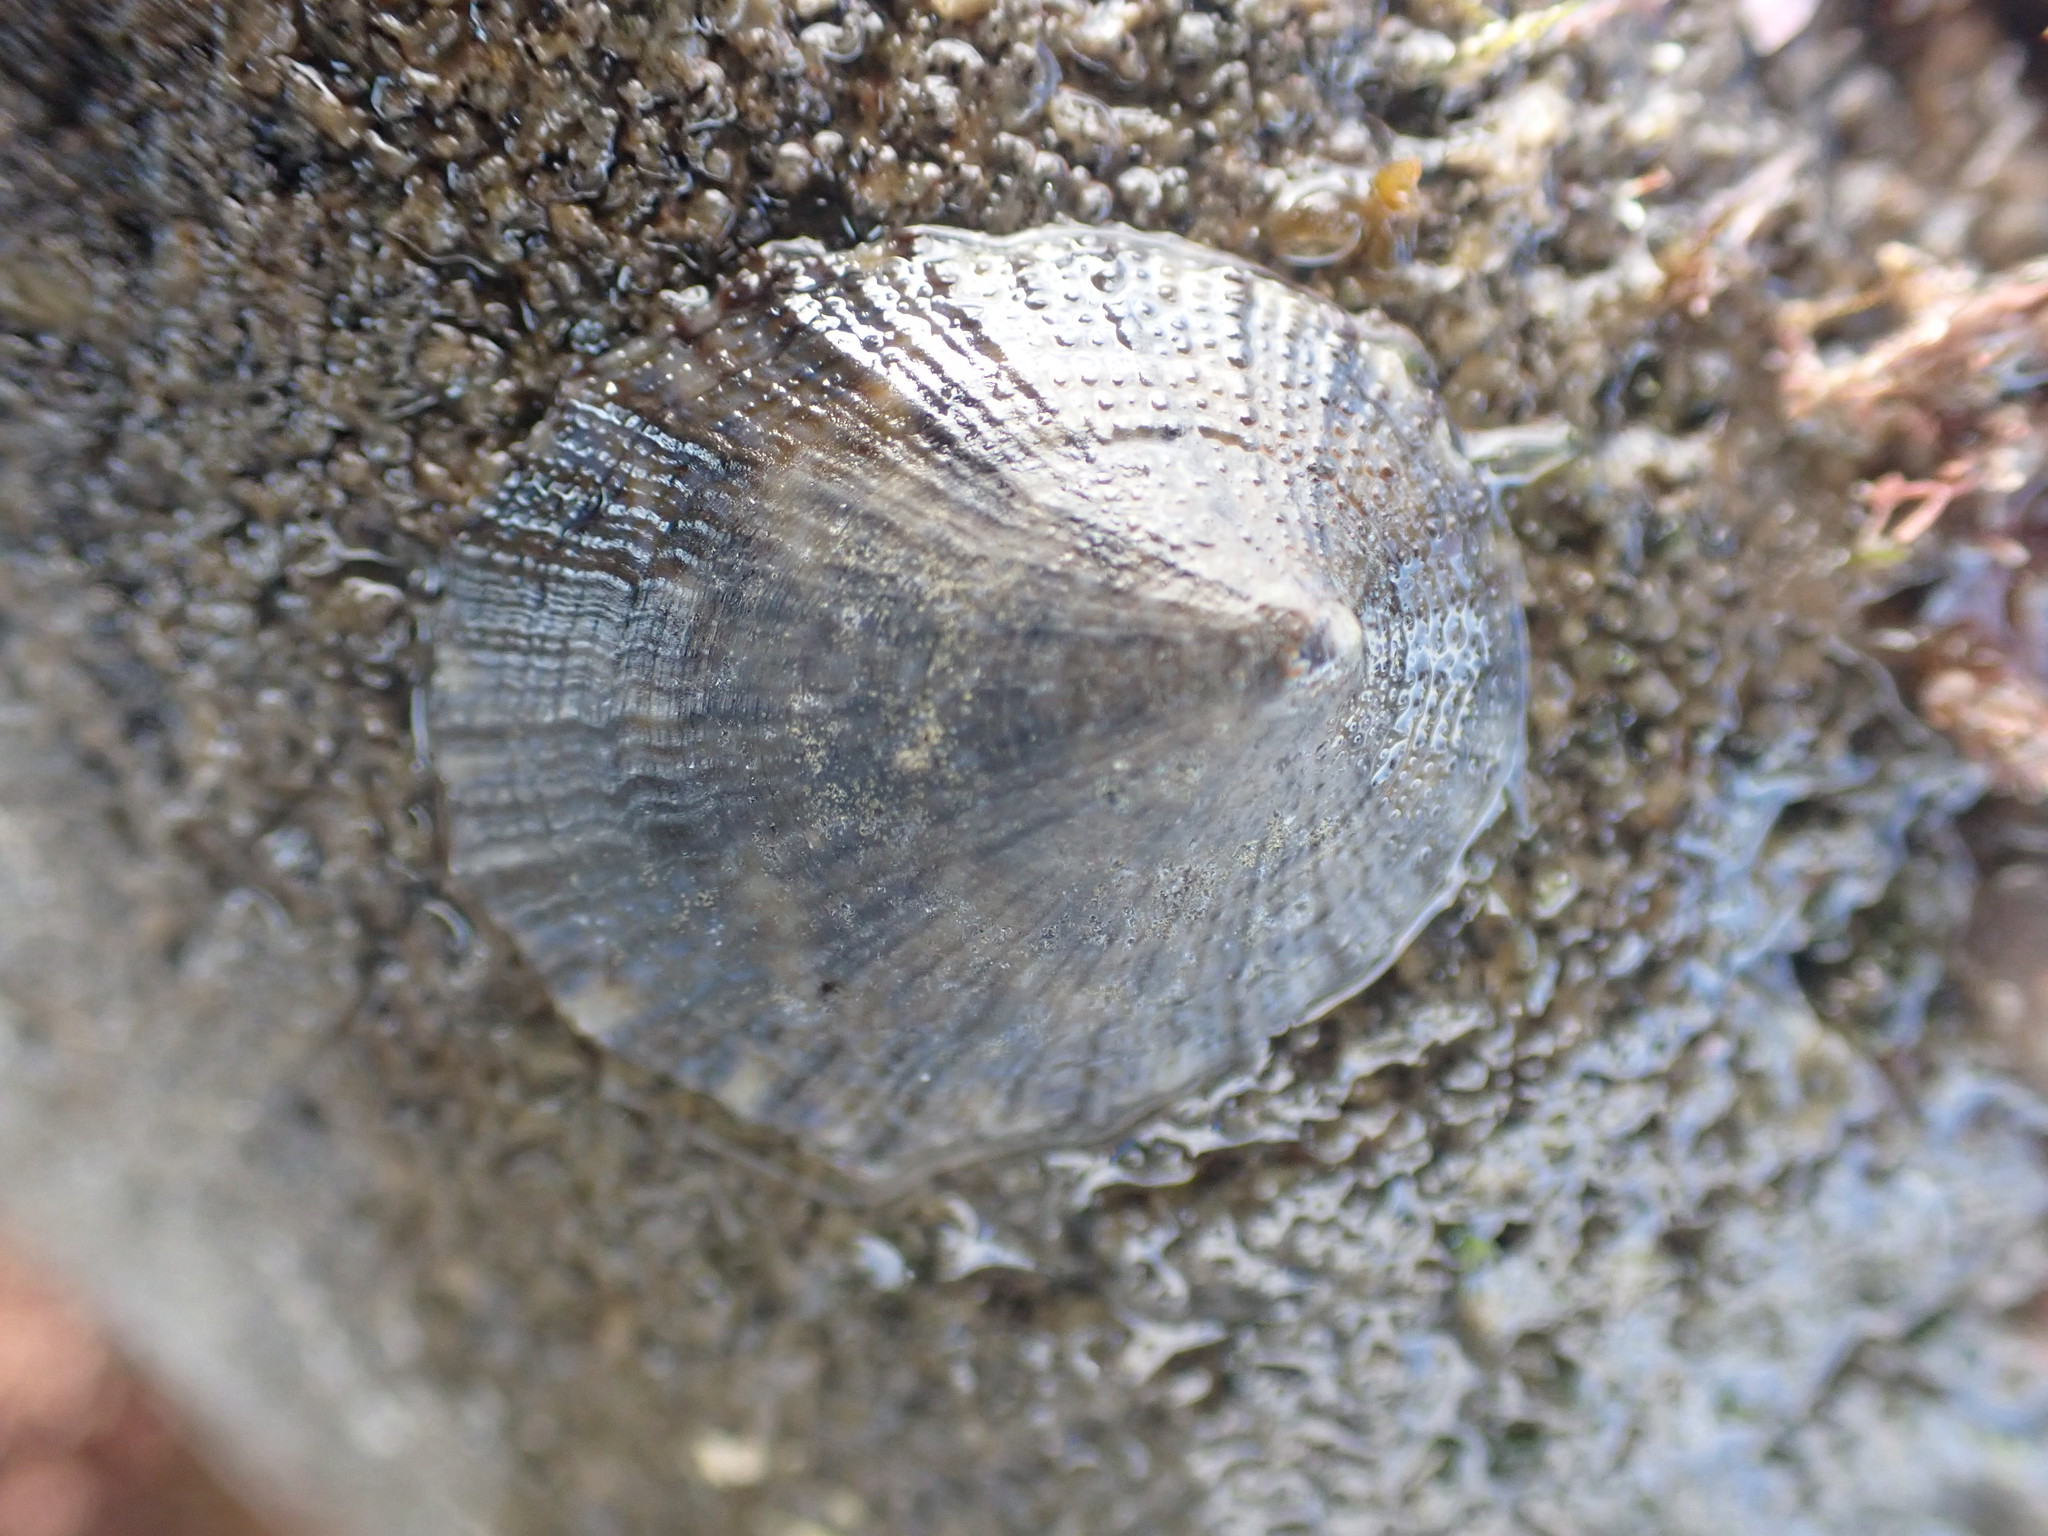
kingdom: Animalia
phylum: Mollusca
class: Gastropoda
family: Nacellidae
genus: Cellana
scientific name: Cellana radians
